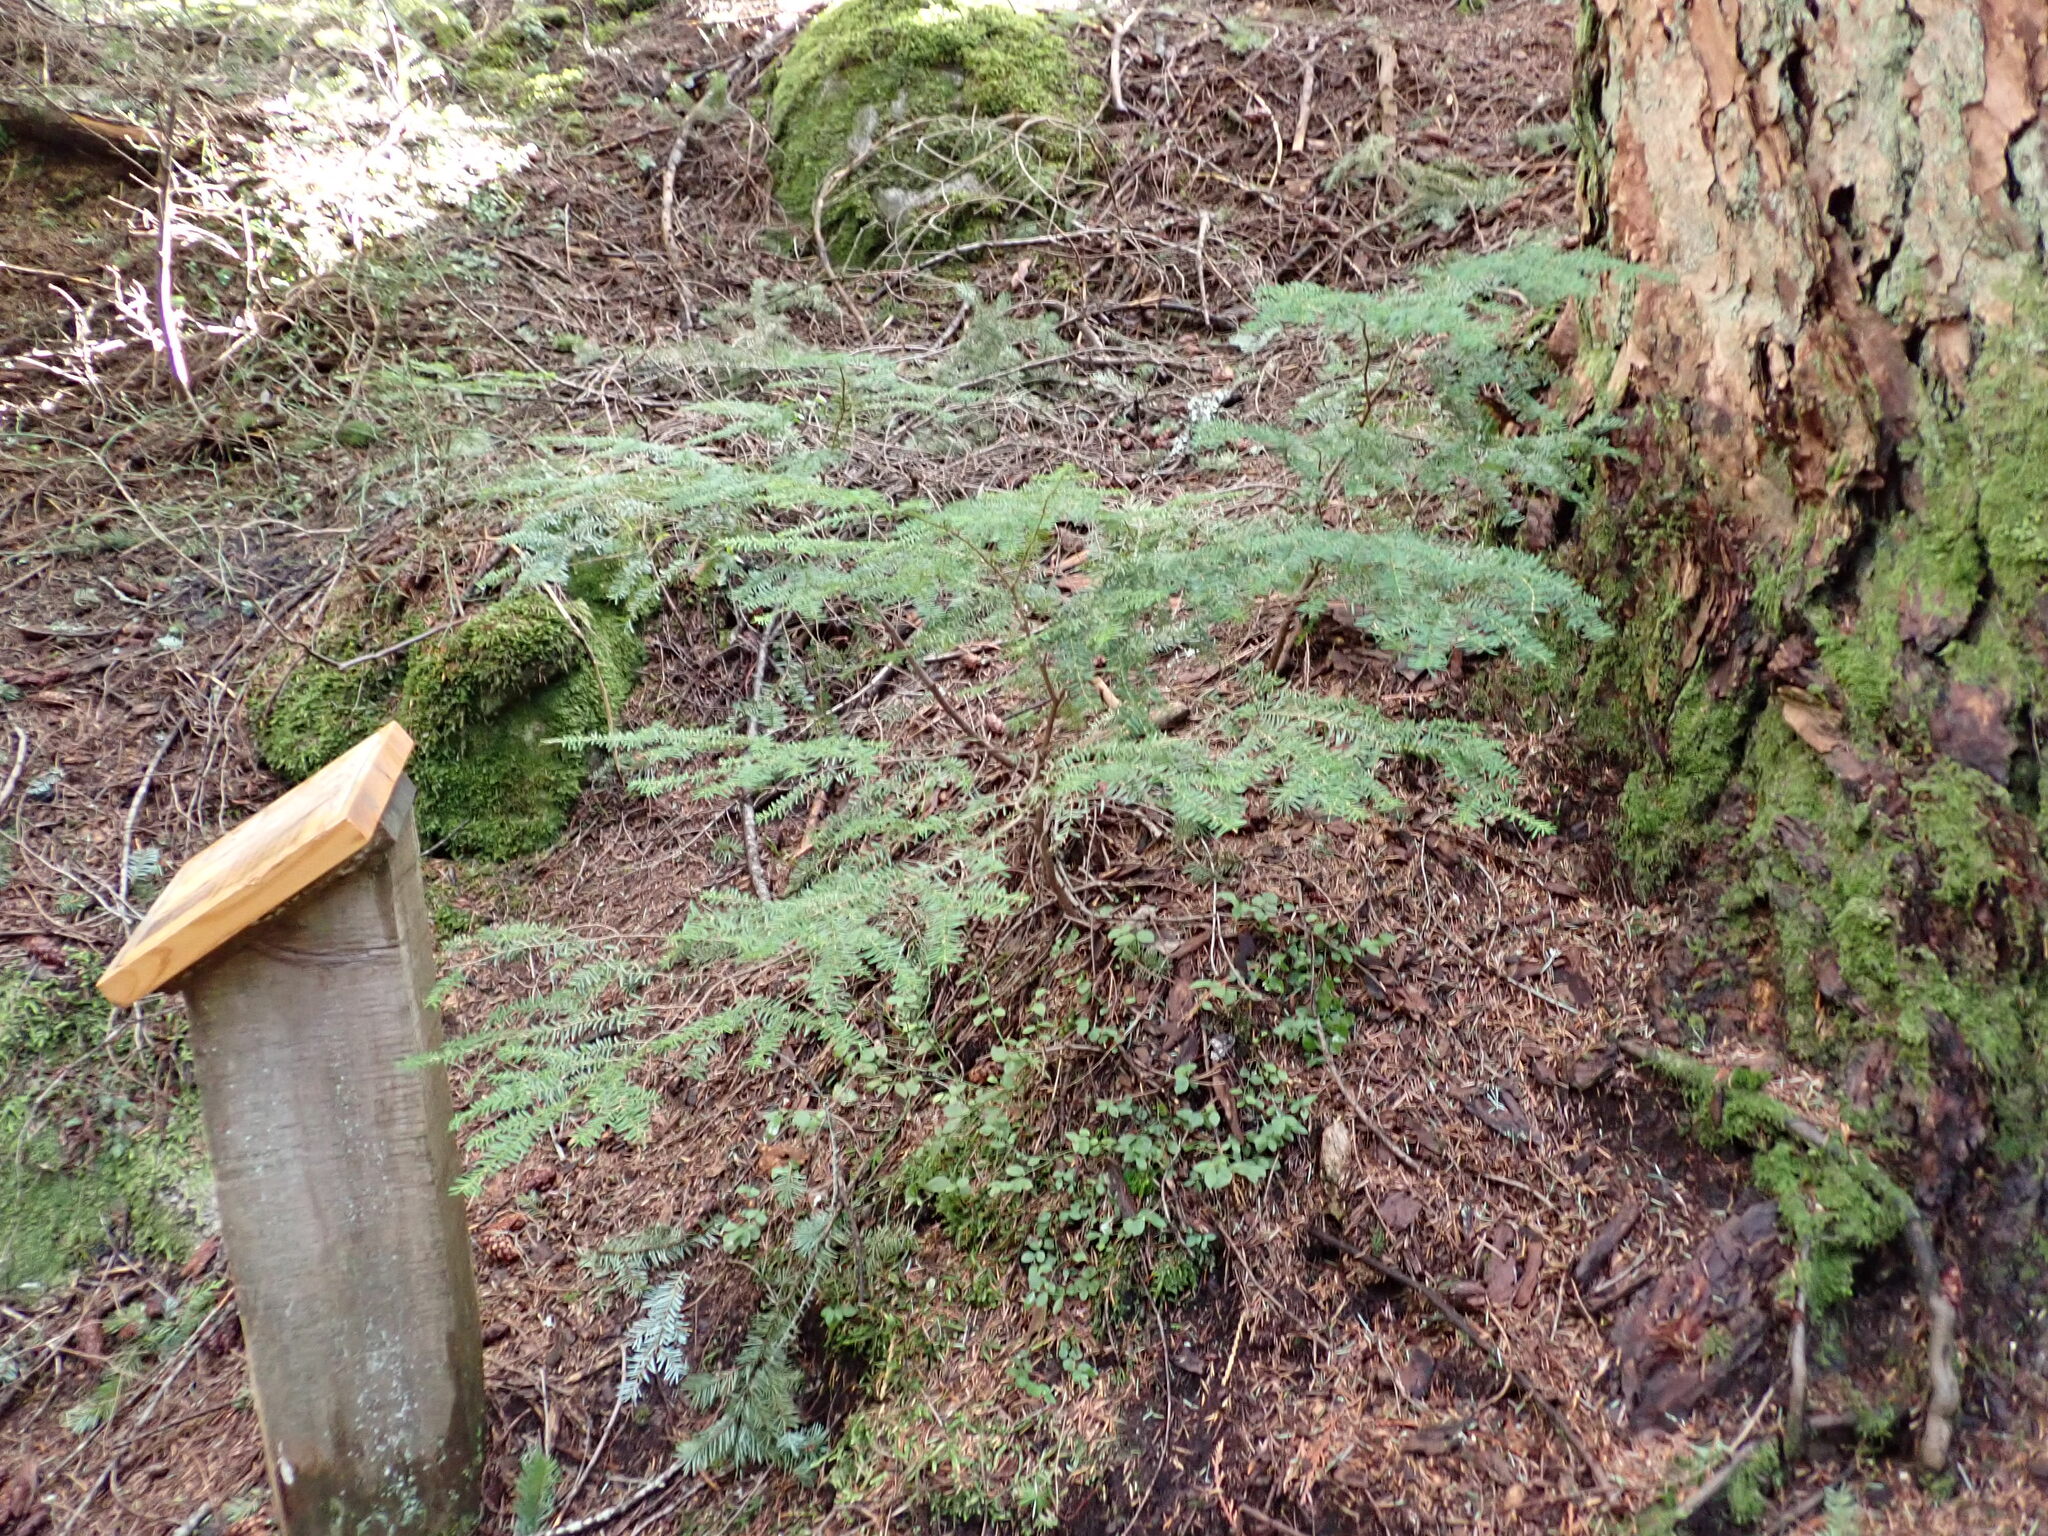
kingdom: Plantae
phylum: Tracheophyta
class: Pinopsida
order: Pinales
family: Pinaceae
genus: Tsuga
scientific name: Tsuga heterophylla
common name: Western hemlock
